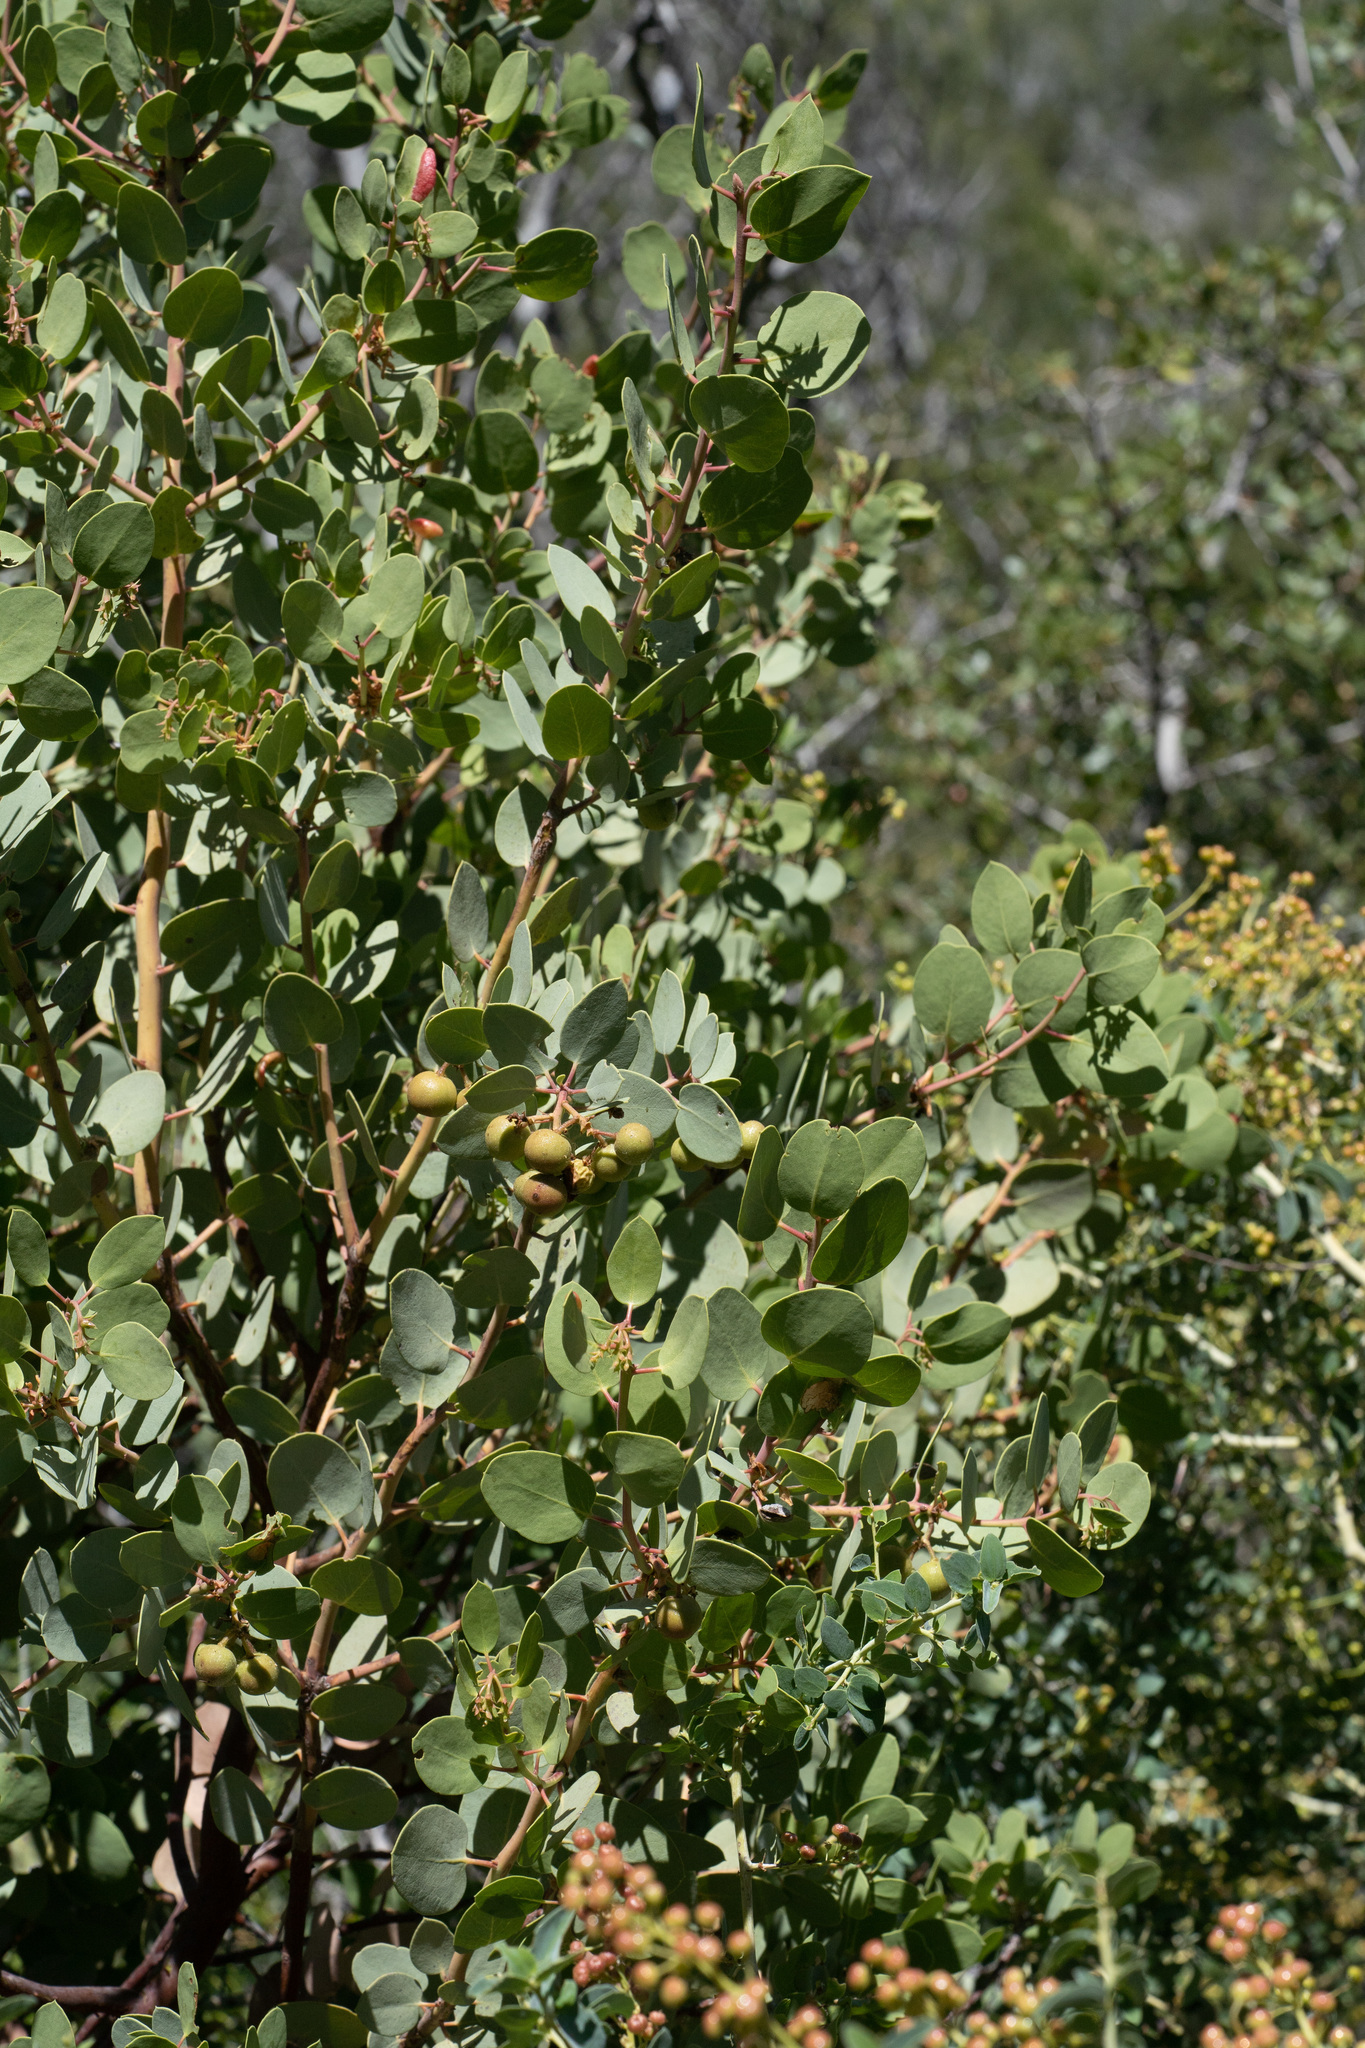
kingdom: Plantae
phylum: Tracheophyta
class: Magnoliopsida
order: Ericales
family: Ericaceae
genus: Arctostaphylos
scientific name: Arctostaphylos glauca
